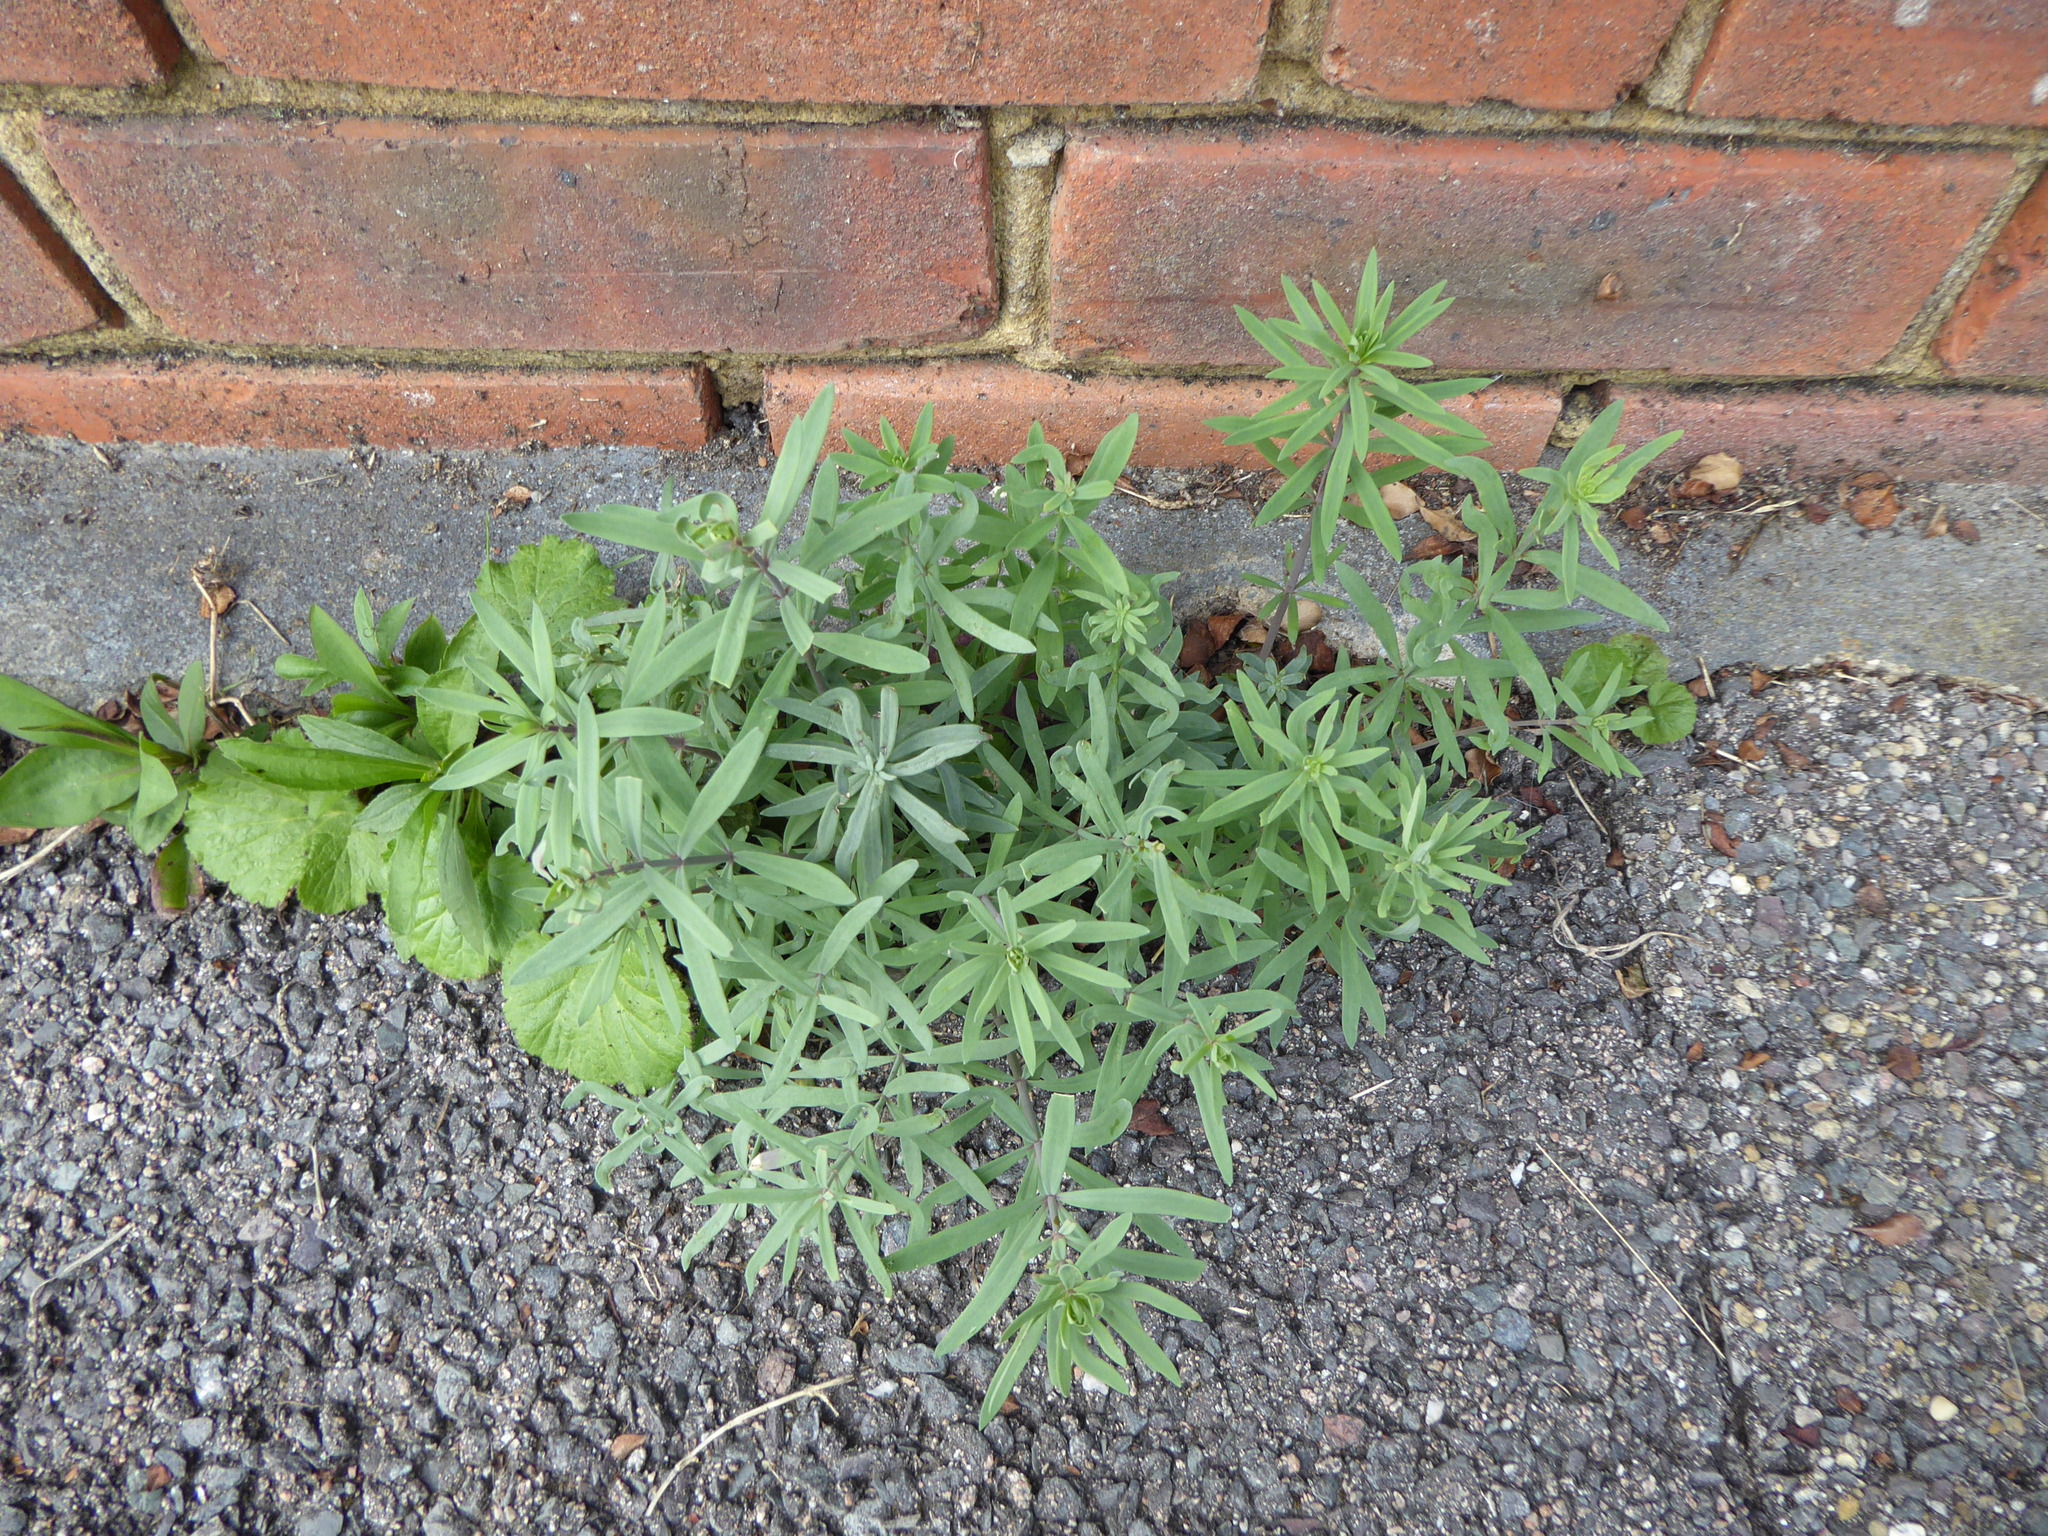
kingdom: Plantae
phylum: Tracheophyta
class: Magnoliopsida
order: Lamiales
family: Plantaginaceae
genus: Linaria
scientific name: Linaria purpurea
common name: Purple toadflax
